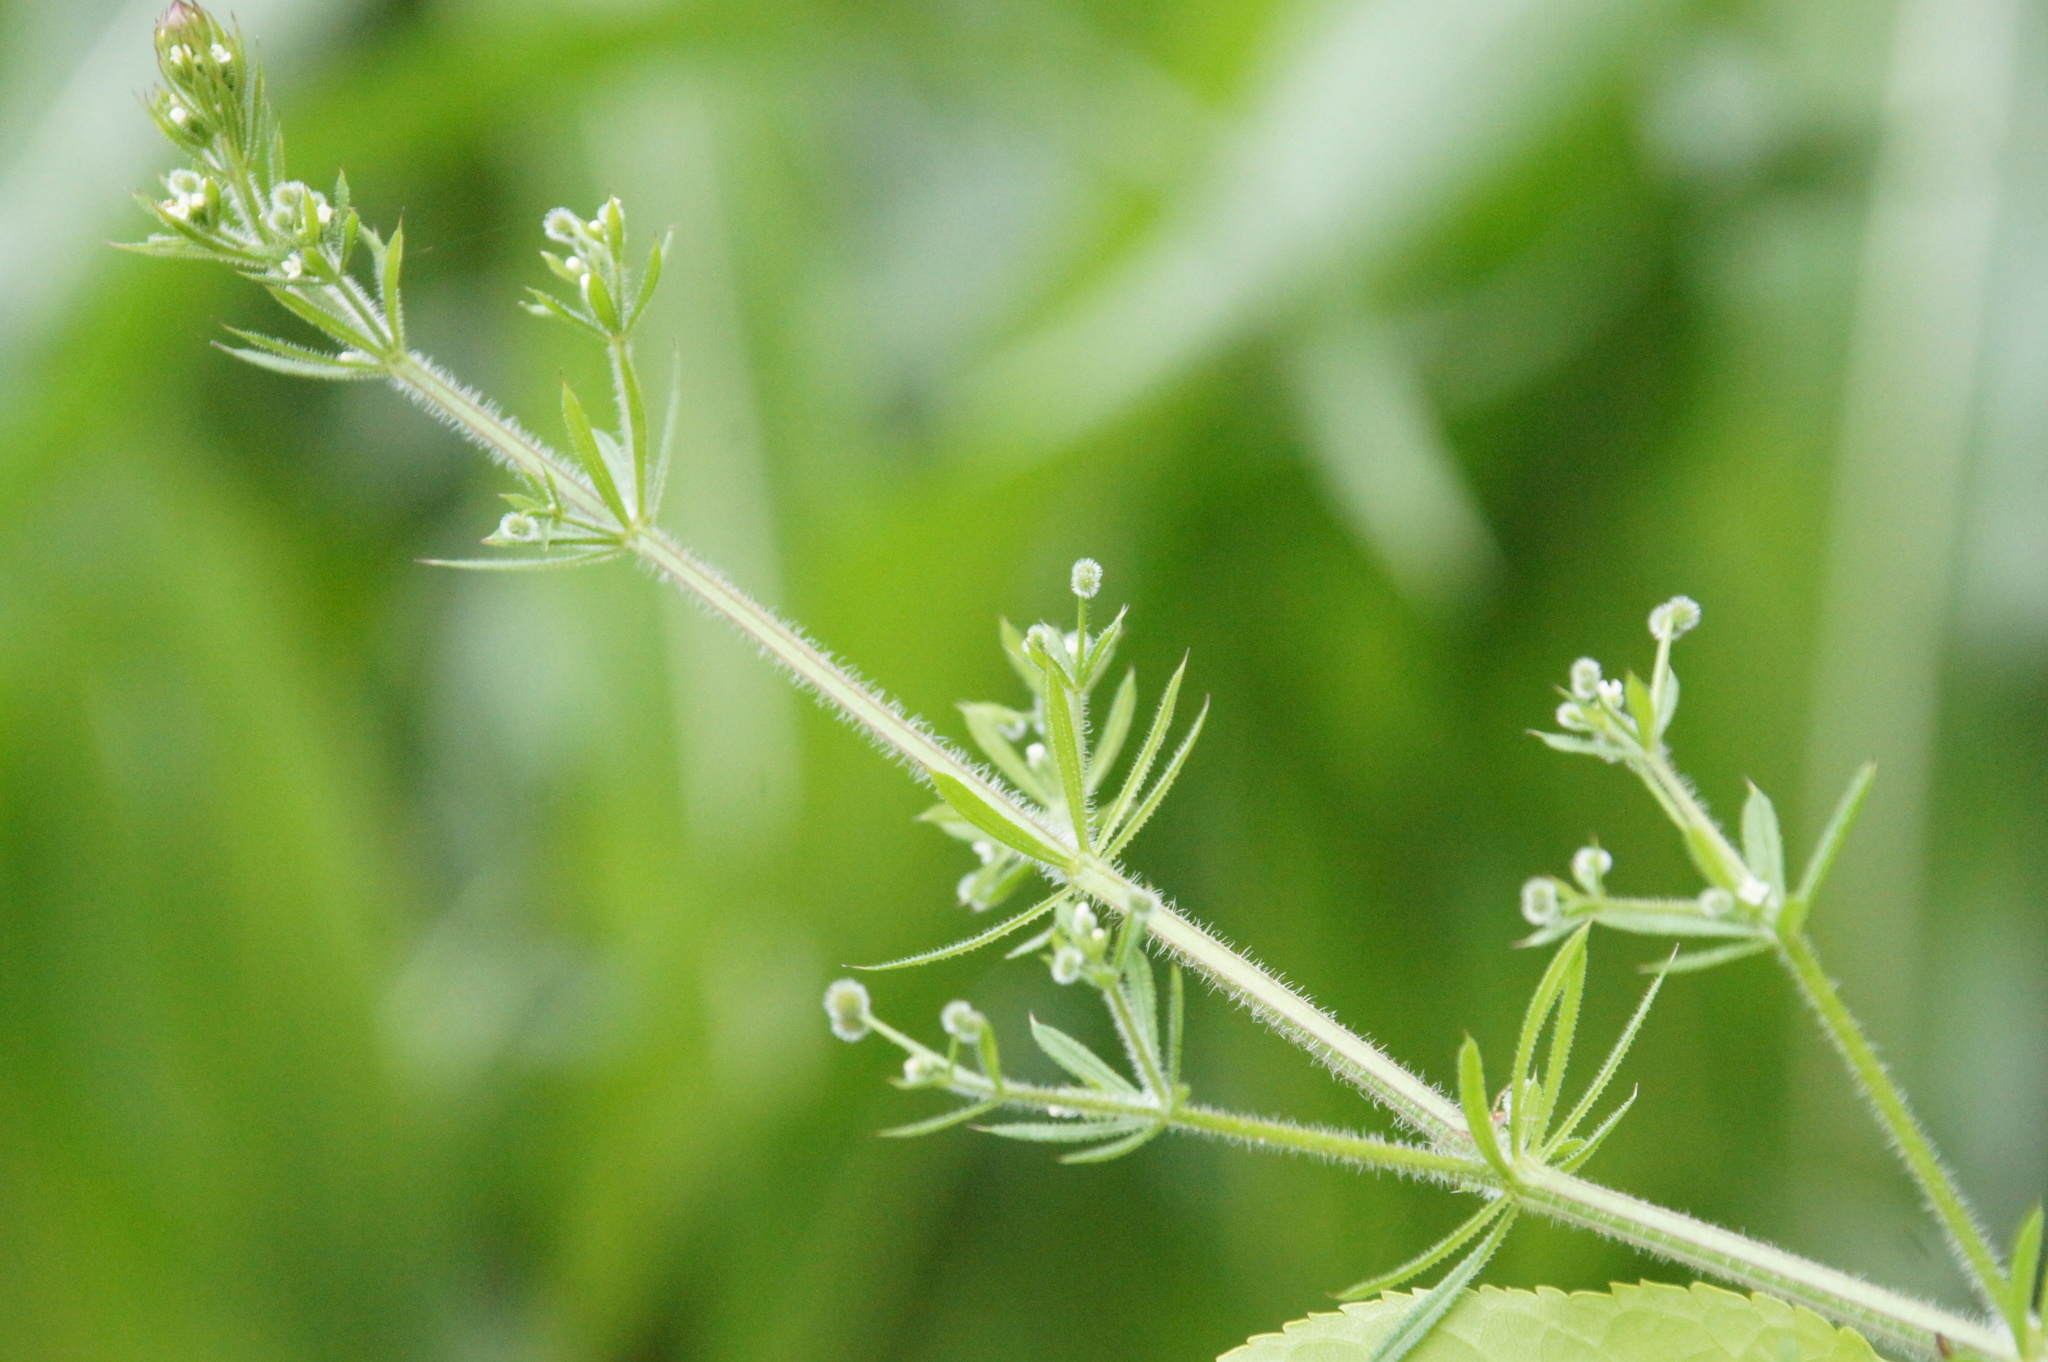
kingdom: Plantae
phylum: Tracheophyta
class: Magnoliopsida
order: Gentianales
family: Rubiaceae
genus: Galium
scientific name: Galium aparine
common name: Cleavers
